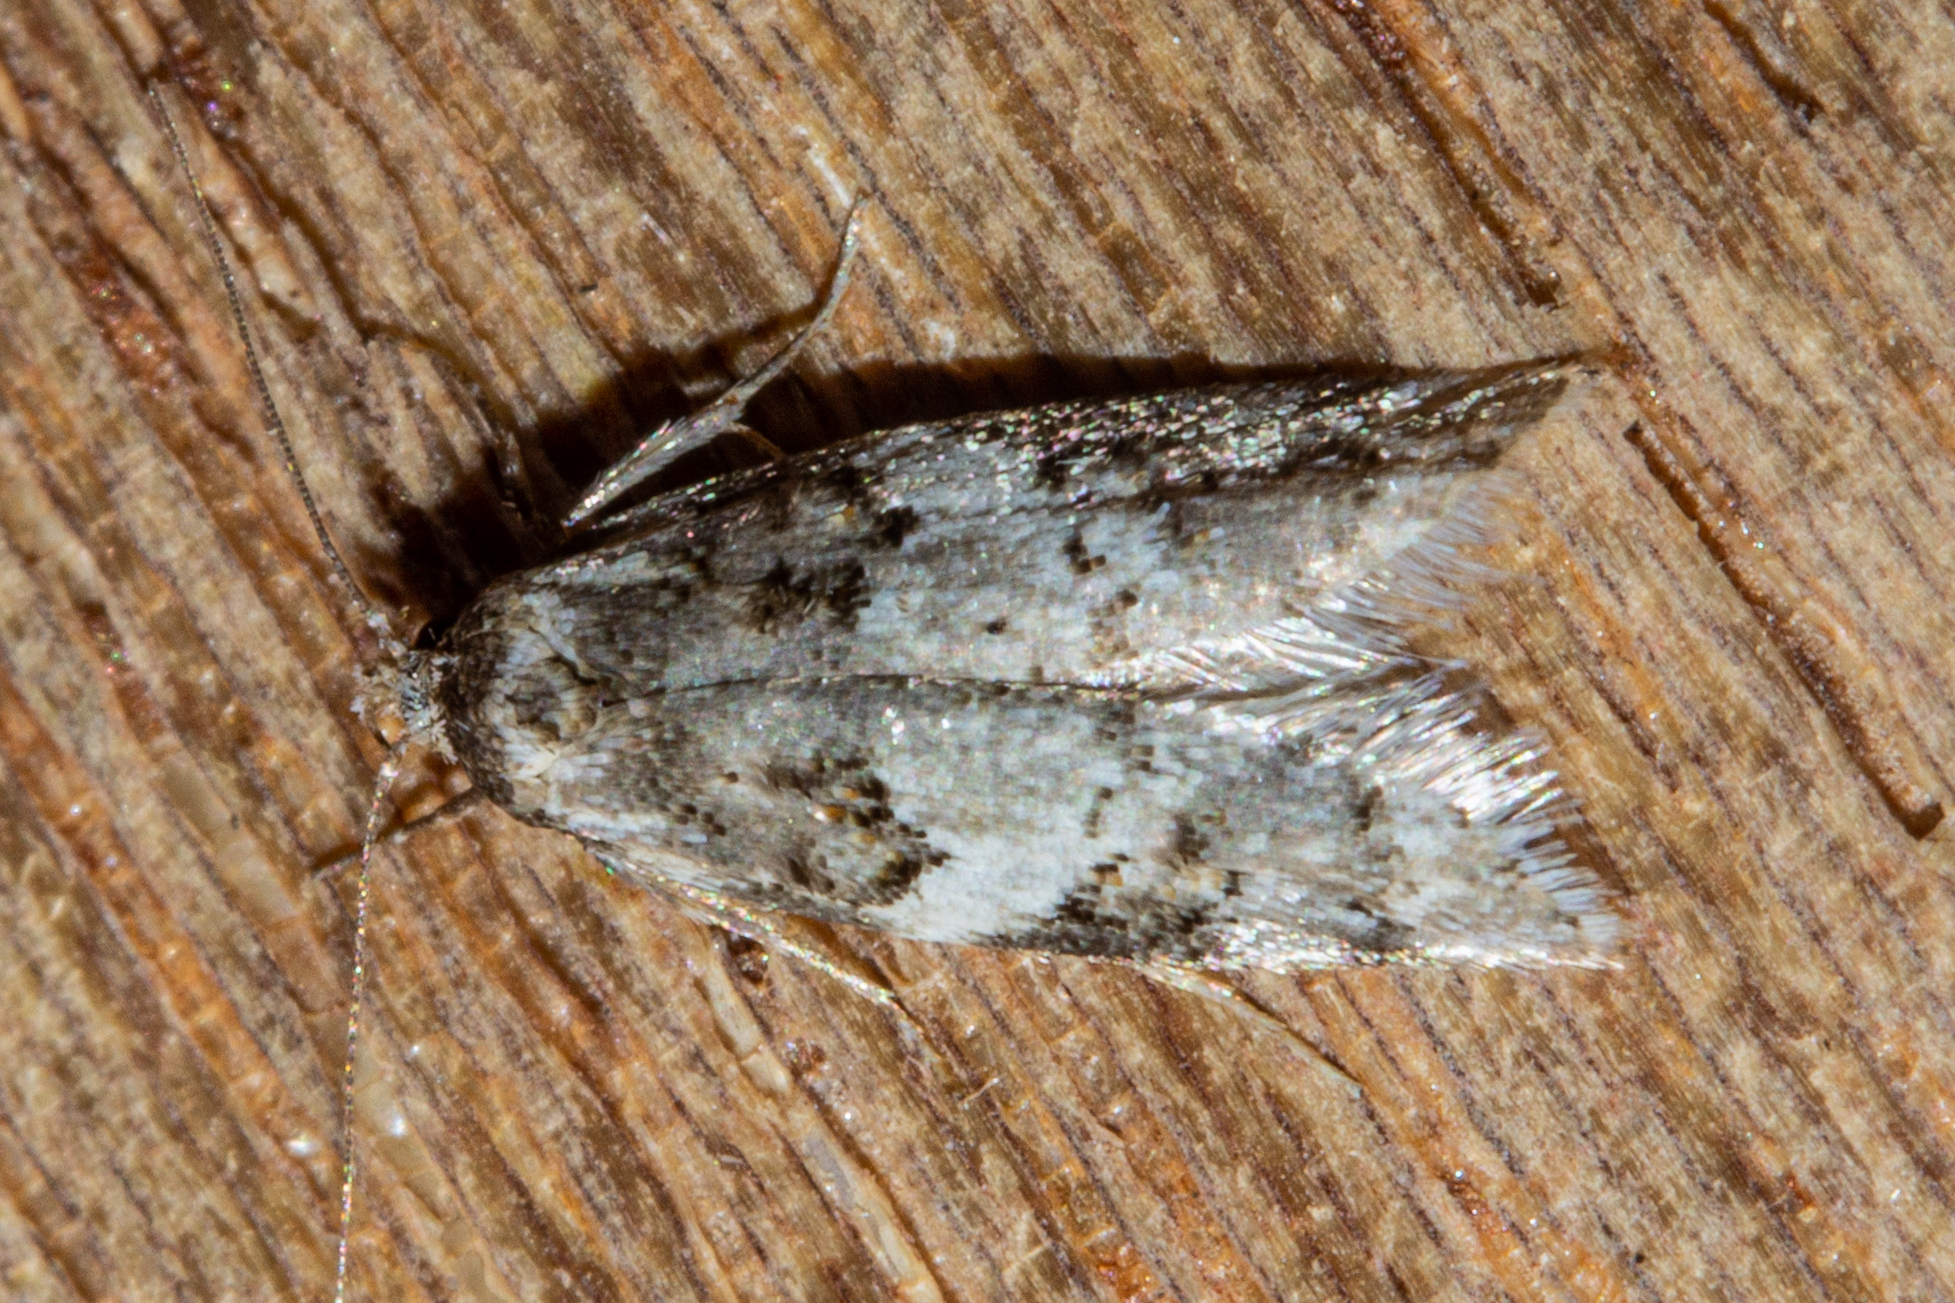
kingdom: Animalia
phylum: Arthropoda
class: Insecta
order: Lepidoptera
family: Oecophoridae
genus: Trachypepla
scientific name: Trachypepla galaxias
